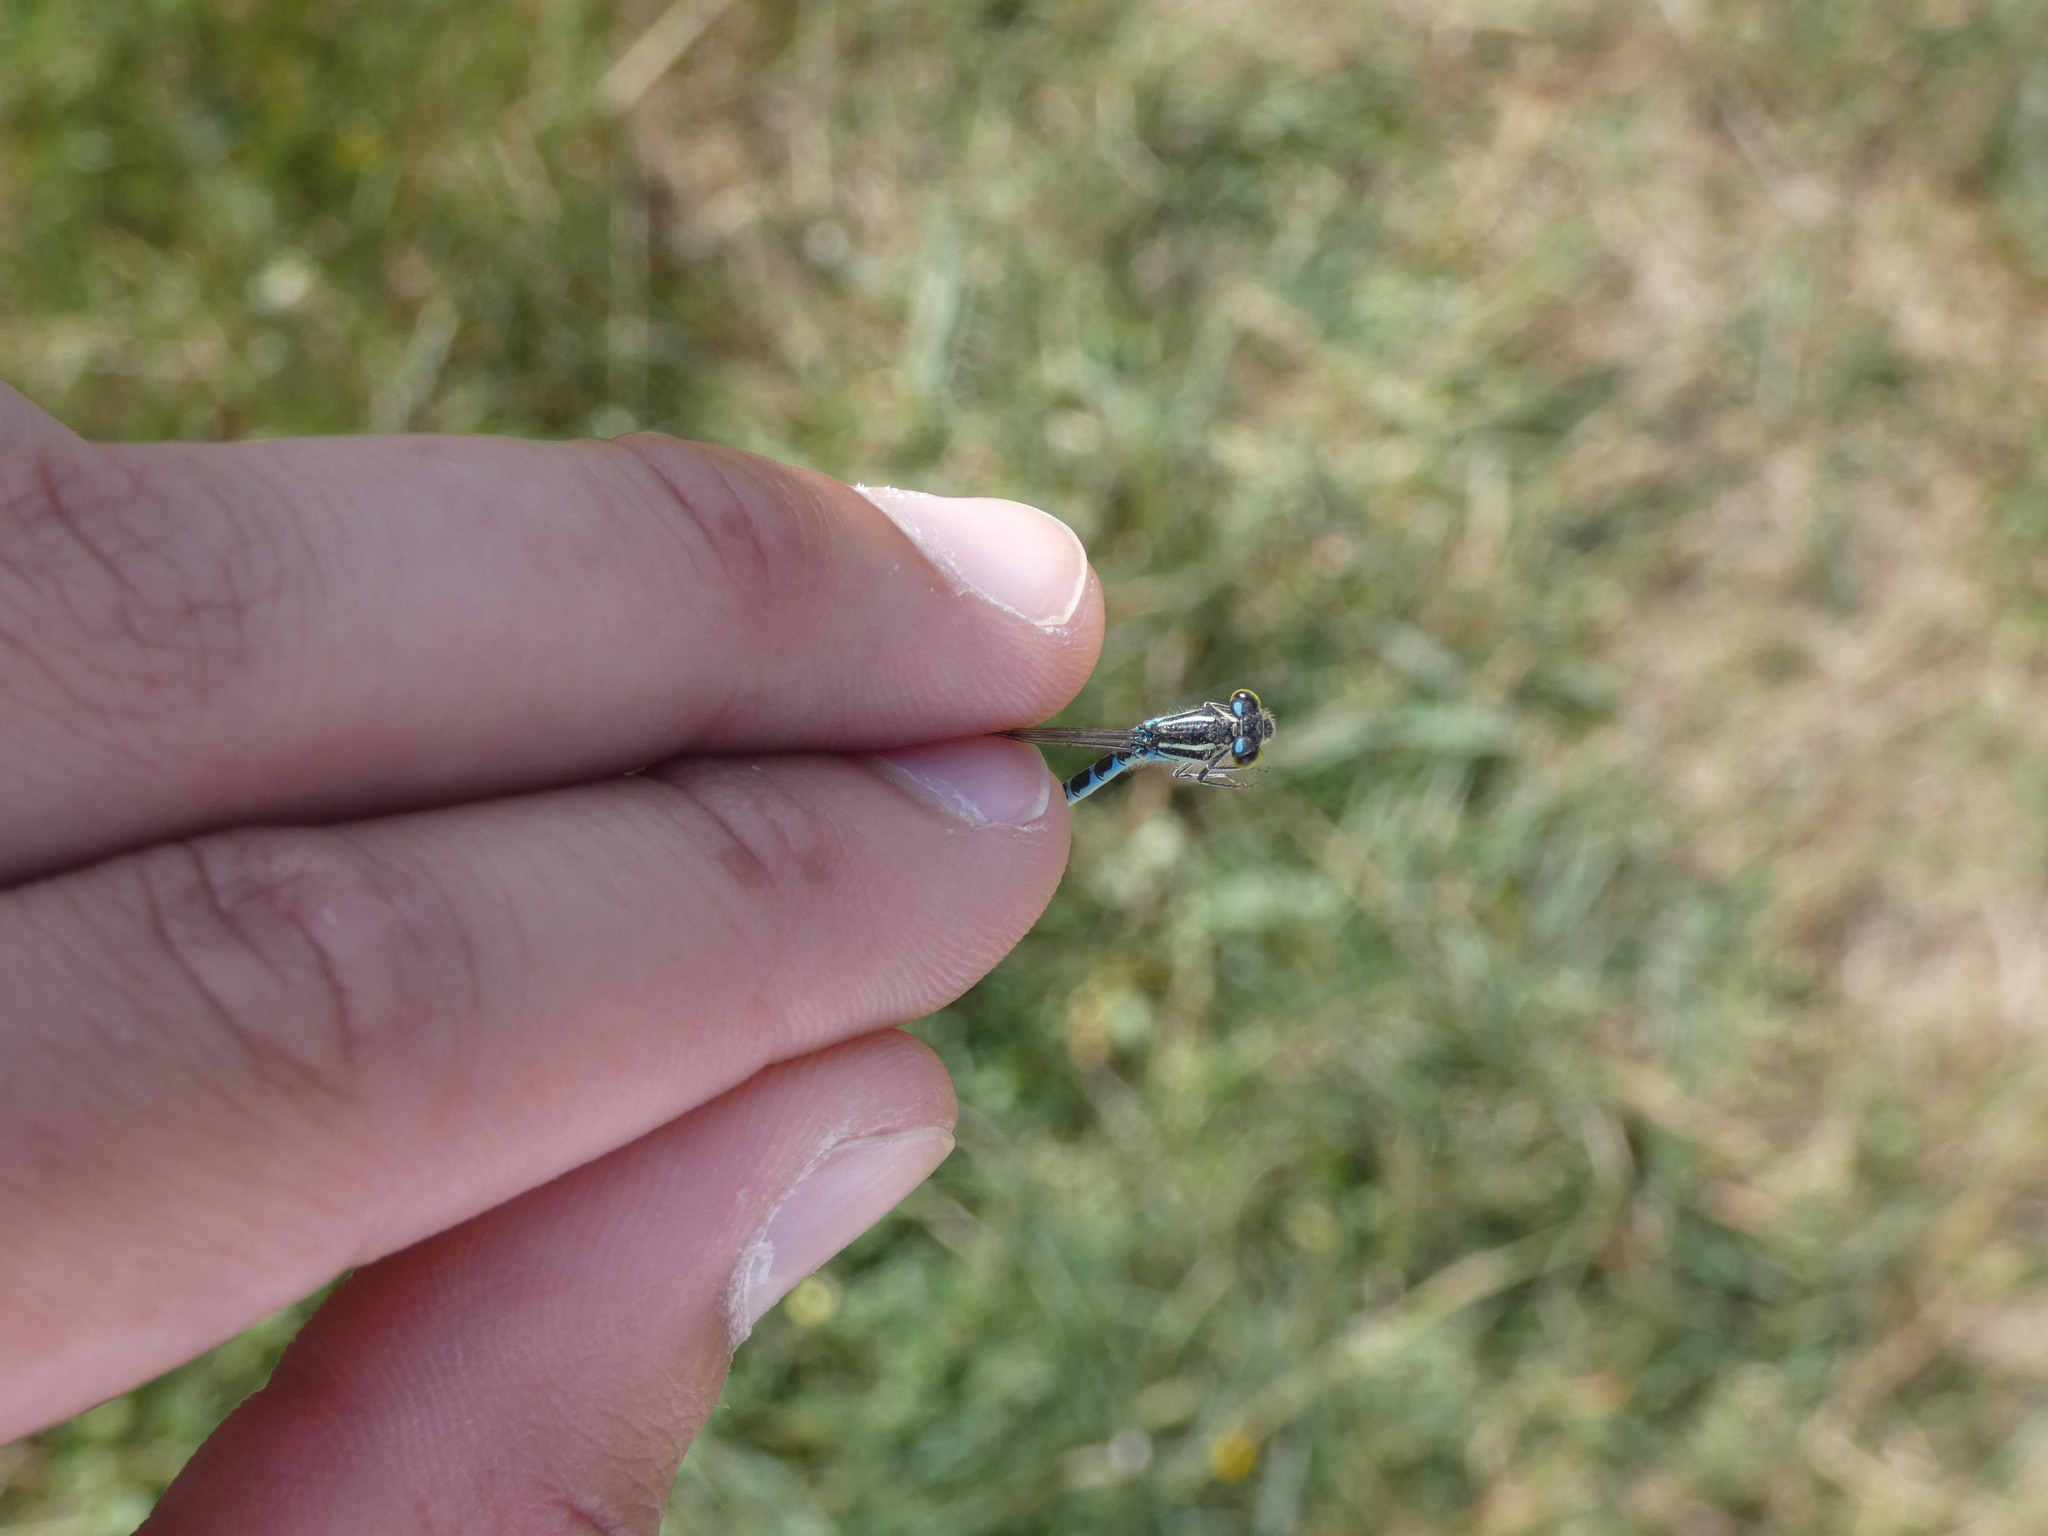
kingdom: Animalia
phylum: Arthropoda
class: Insecta
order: Odonata
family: Coenagrionidae
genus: Coenagrion
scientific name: Coenagrion scitulum
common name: Dainty bluet
